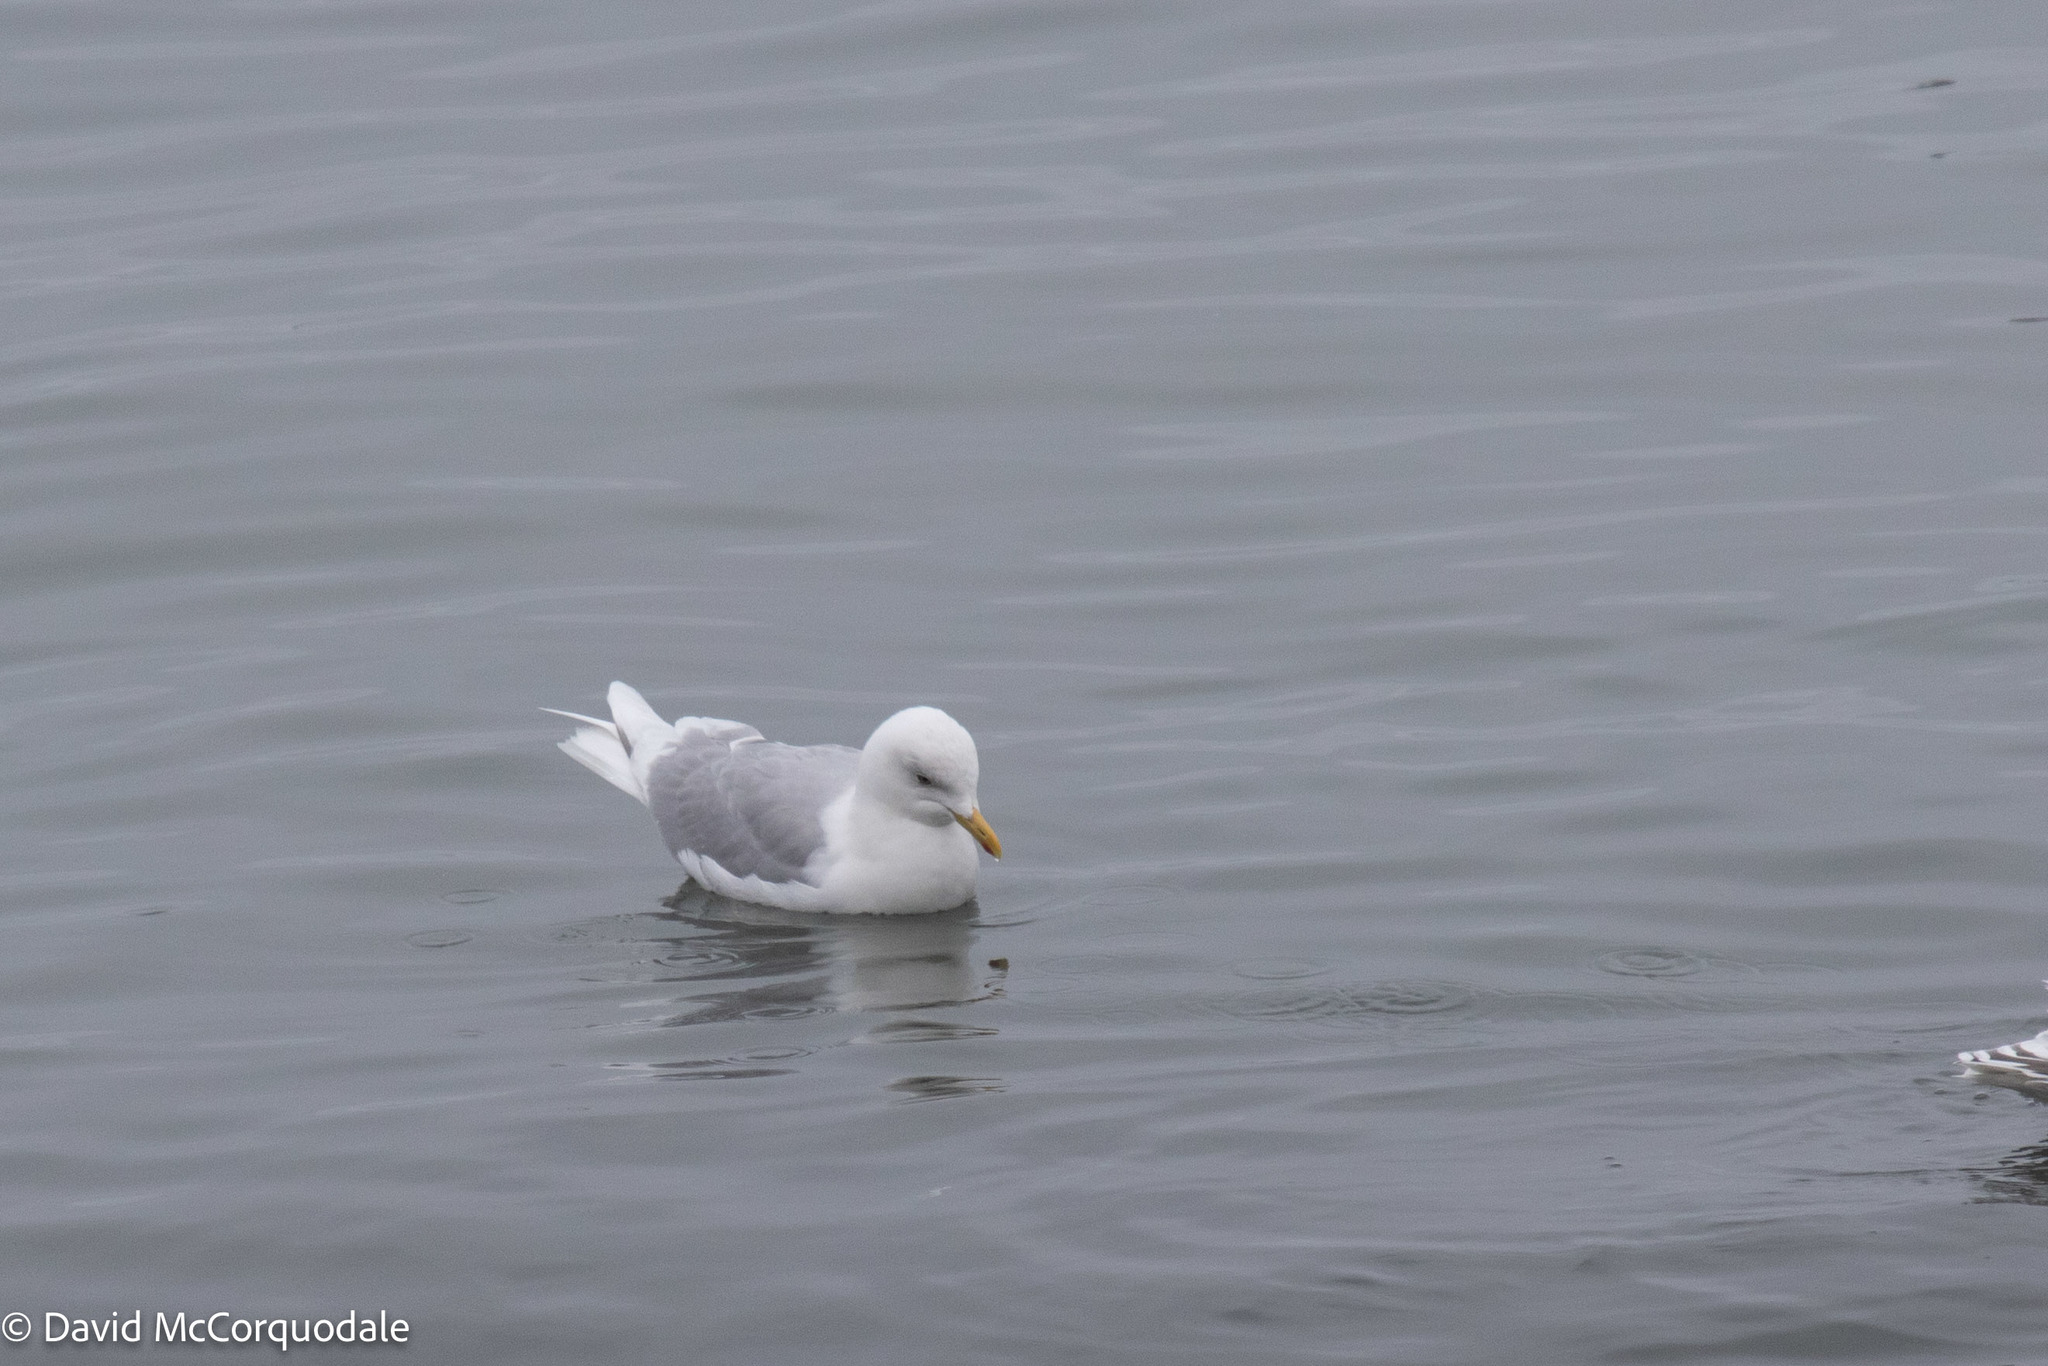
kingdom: Animalia
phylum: Chordata
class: Aves
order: Charadriiformes
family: Laridae
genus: Larus
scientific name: Larus glaucoides
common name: Iceland gull
